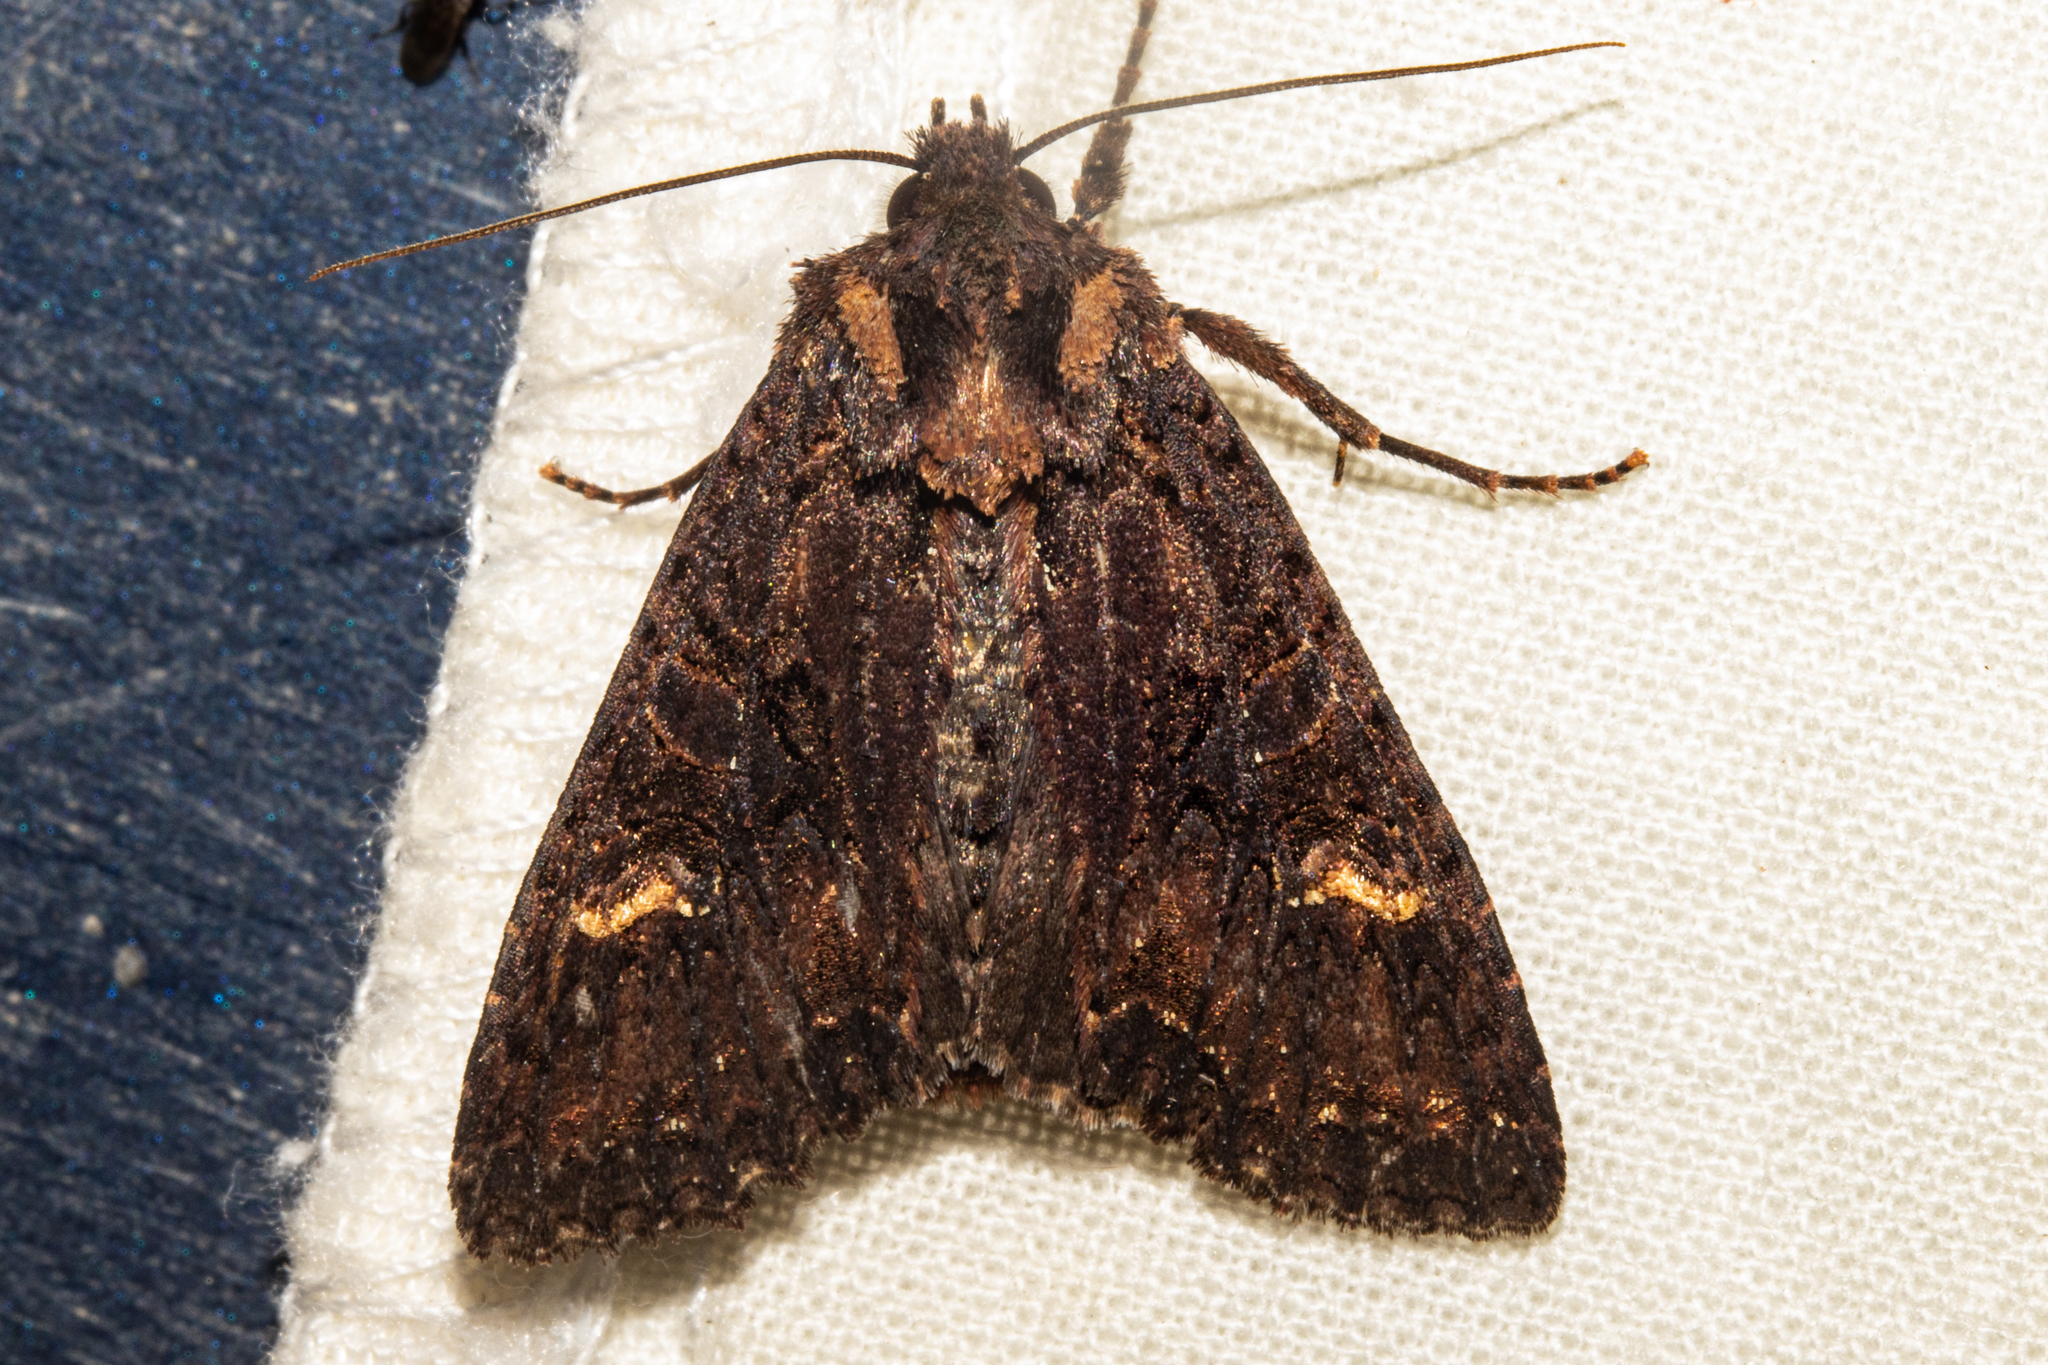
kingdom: Animalia
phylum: Arthropoda
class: Insecta
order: Lepidoptera
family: Noctuidae
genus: Meterana
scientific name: Meterana dotata
